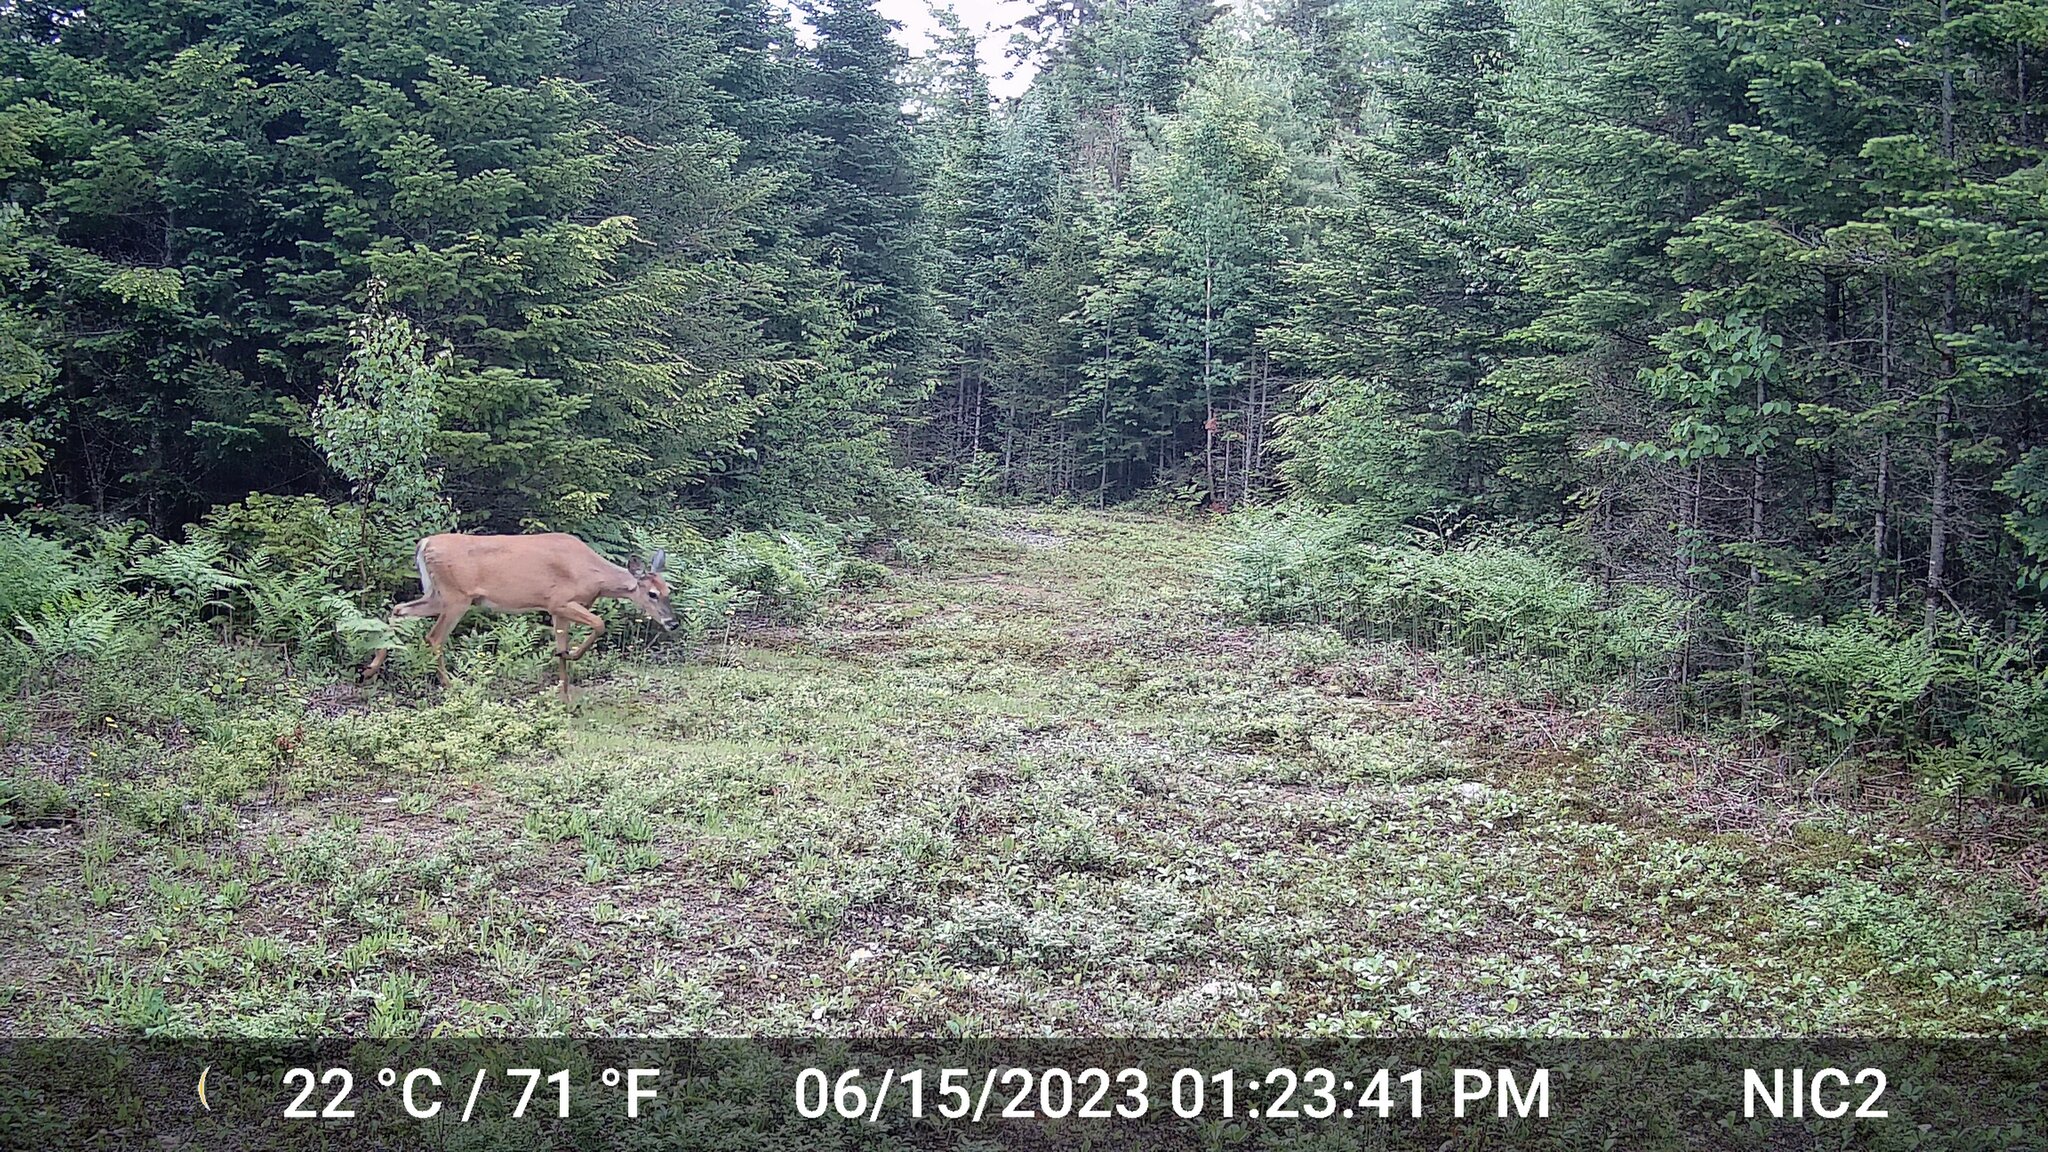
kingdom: Animalia
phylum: Chordata
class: Mammalia
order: Artiodactyla
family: Cervidae
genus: Odocoileus
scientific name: Odocoileus virginianus
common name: White-tailed deer
